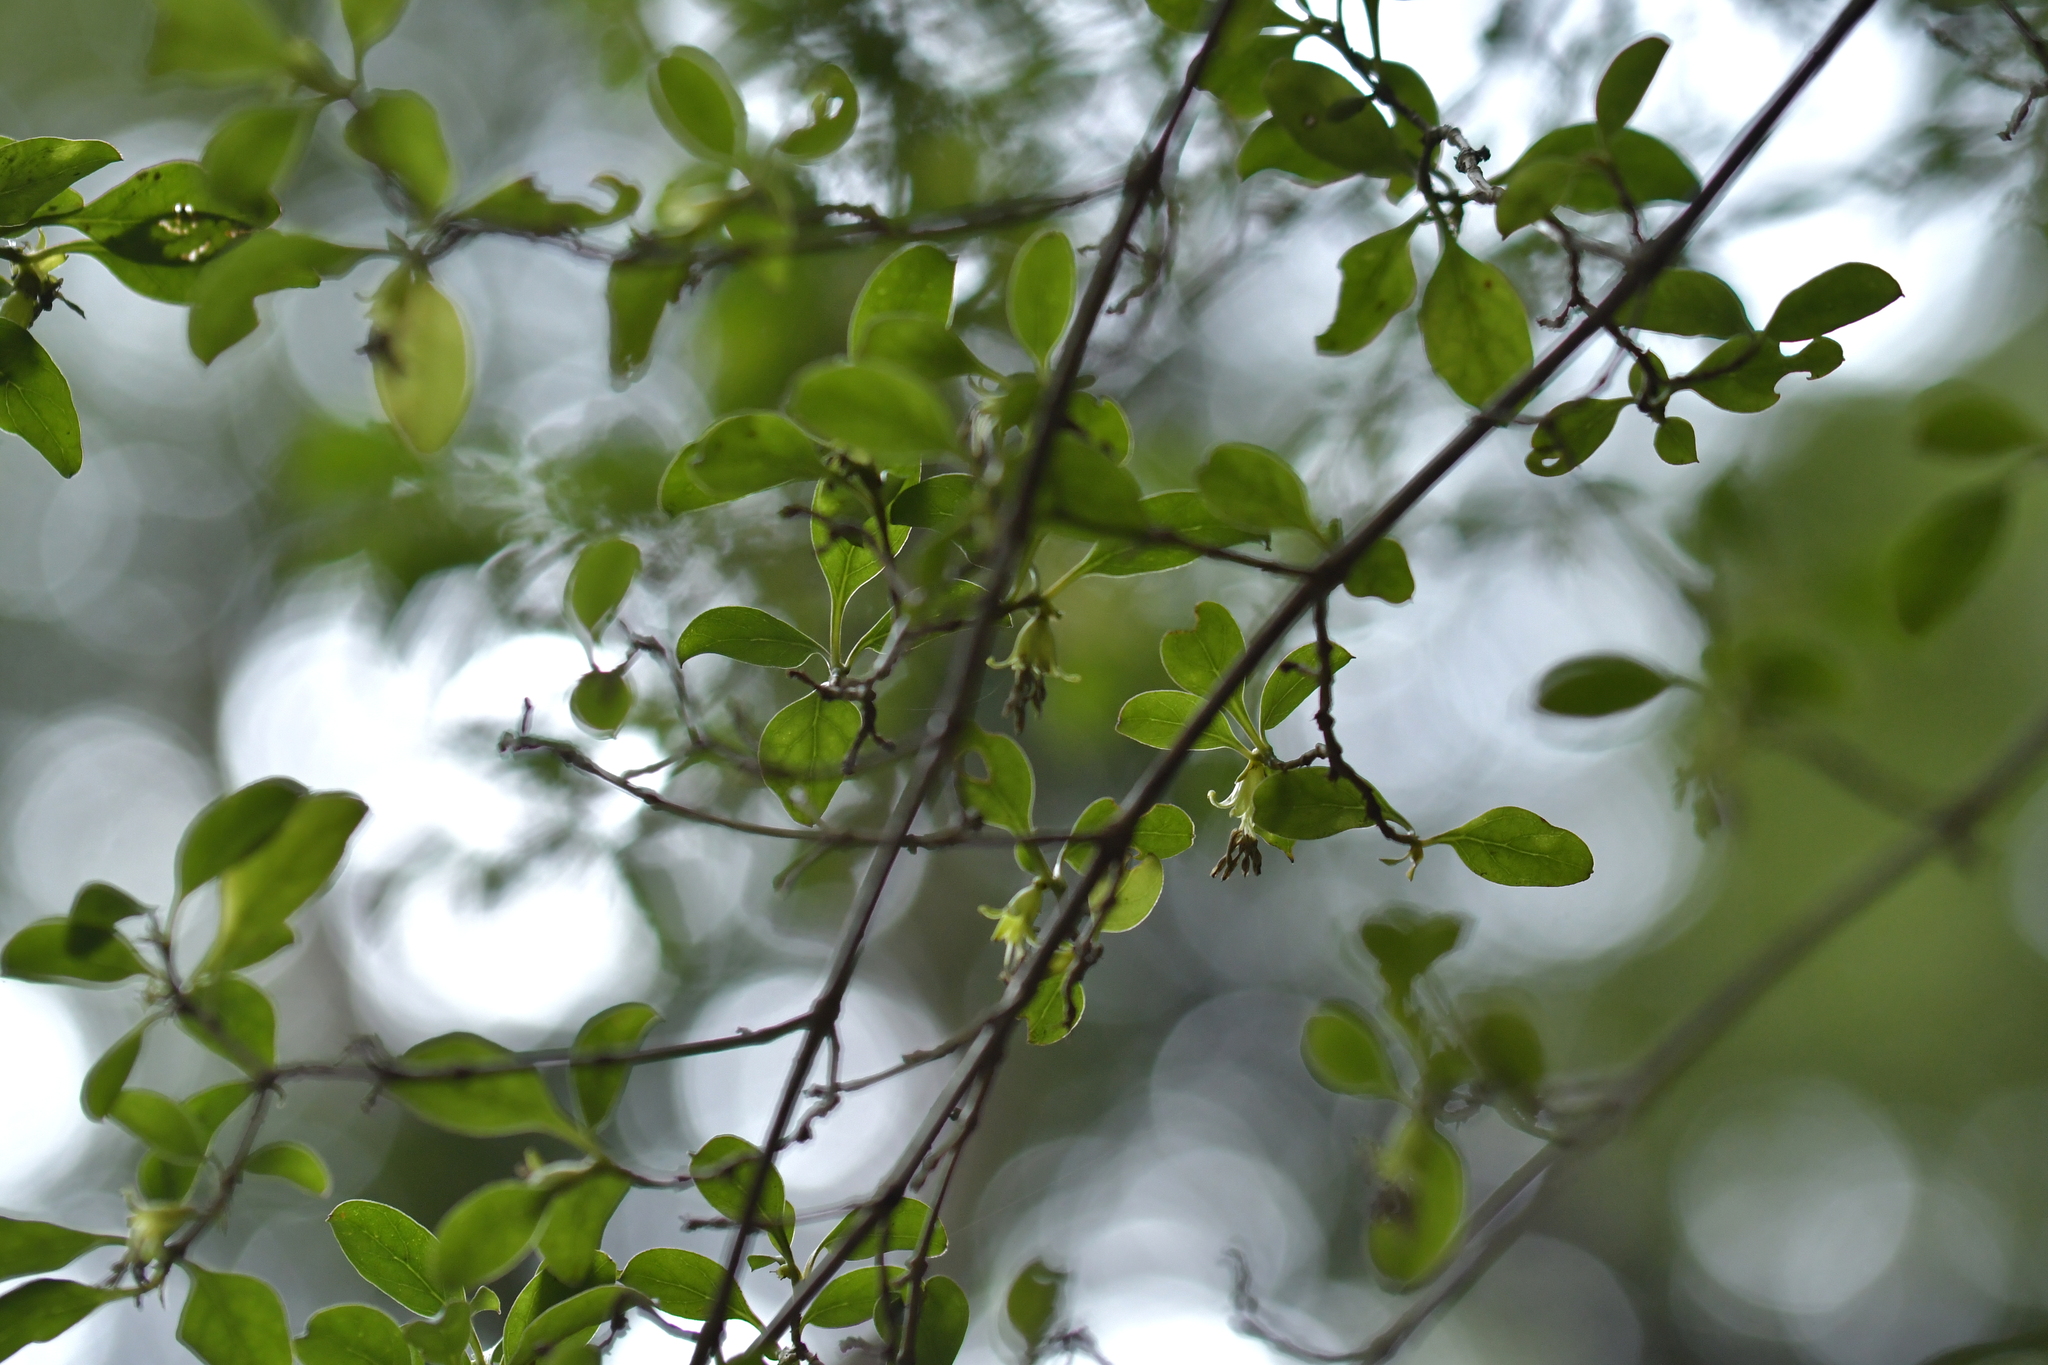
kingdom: Plantae
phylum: Tracheophyta
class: Magnoliopsida
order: Gentianales
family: Rubiaceae
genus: Coprosma
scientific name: Coprosma foetidissima
